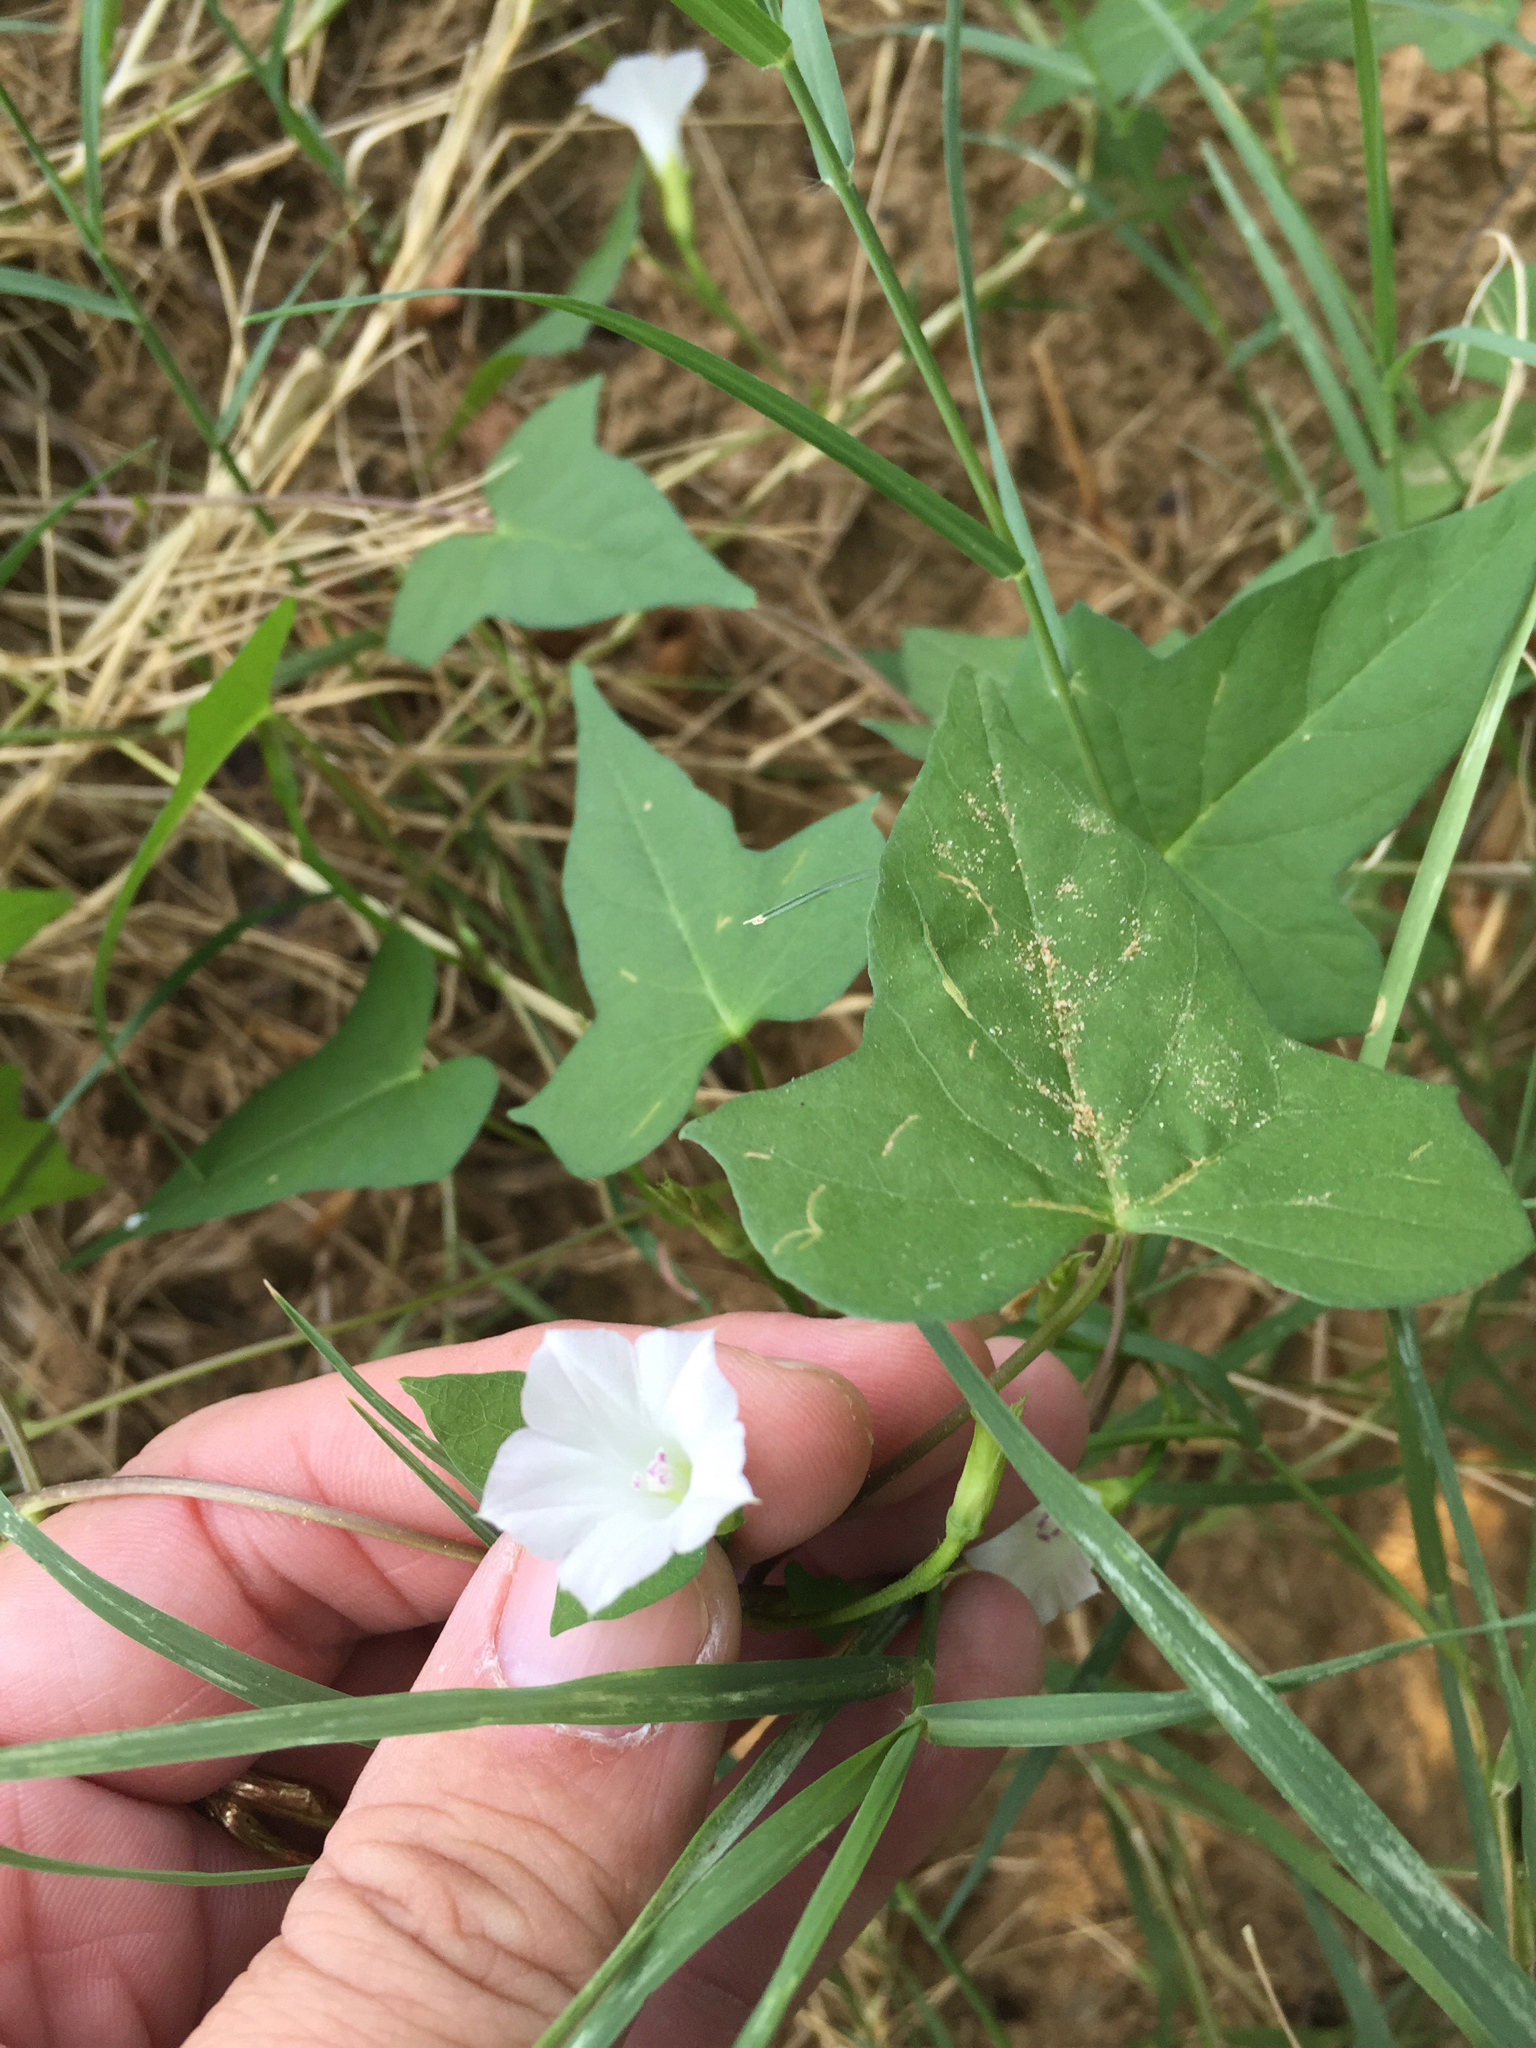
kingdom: Plantae
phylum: Tracheophyta
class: Magnoliopsida
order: Solanales
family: Convolvulaceae
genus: Ipomoea
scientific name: Ipomoea lacunosa
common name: White morning-glory
